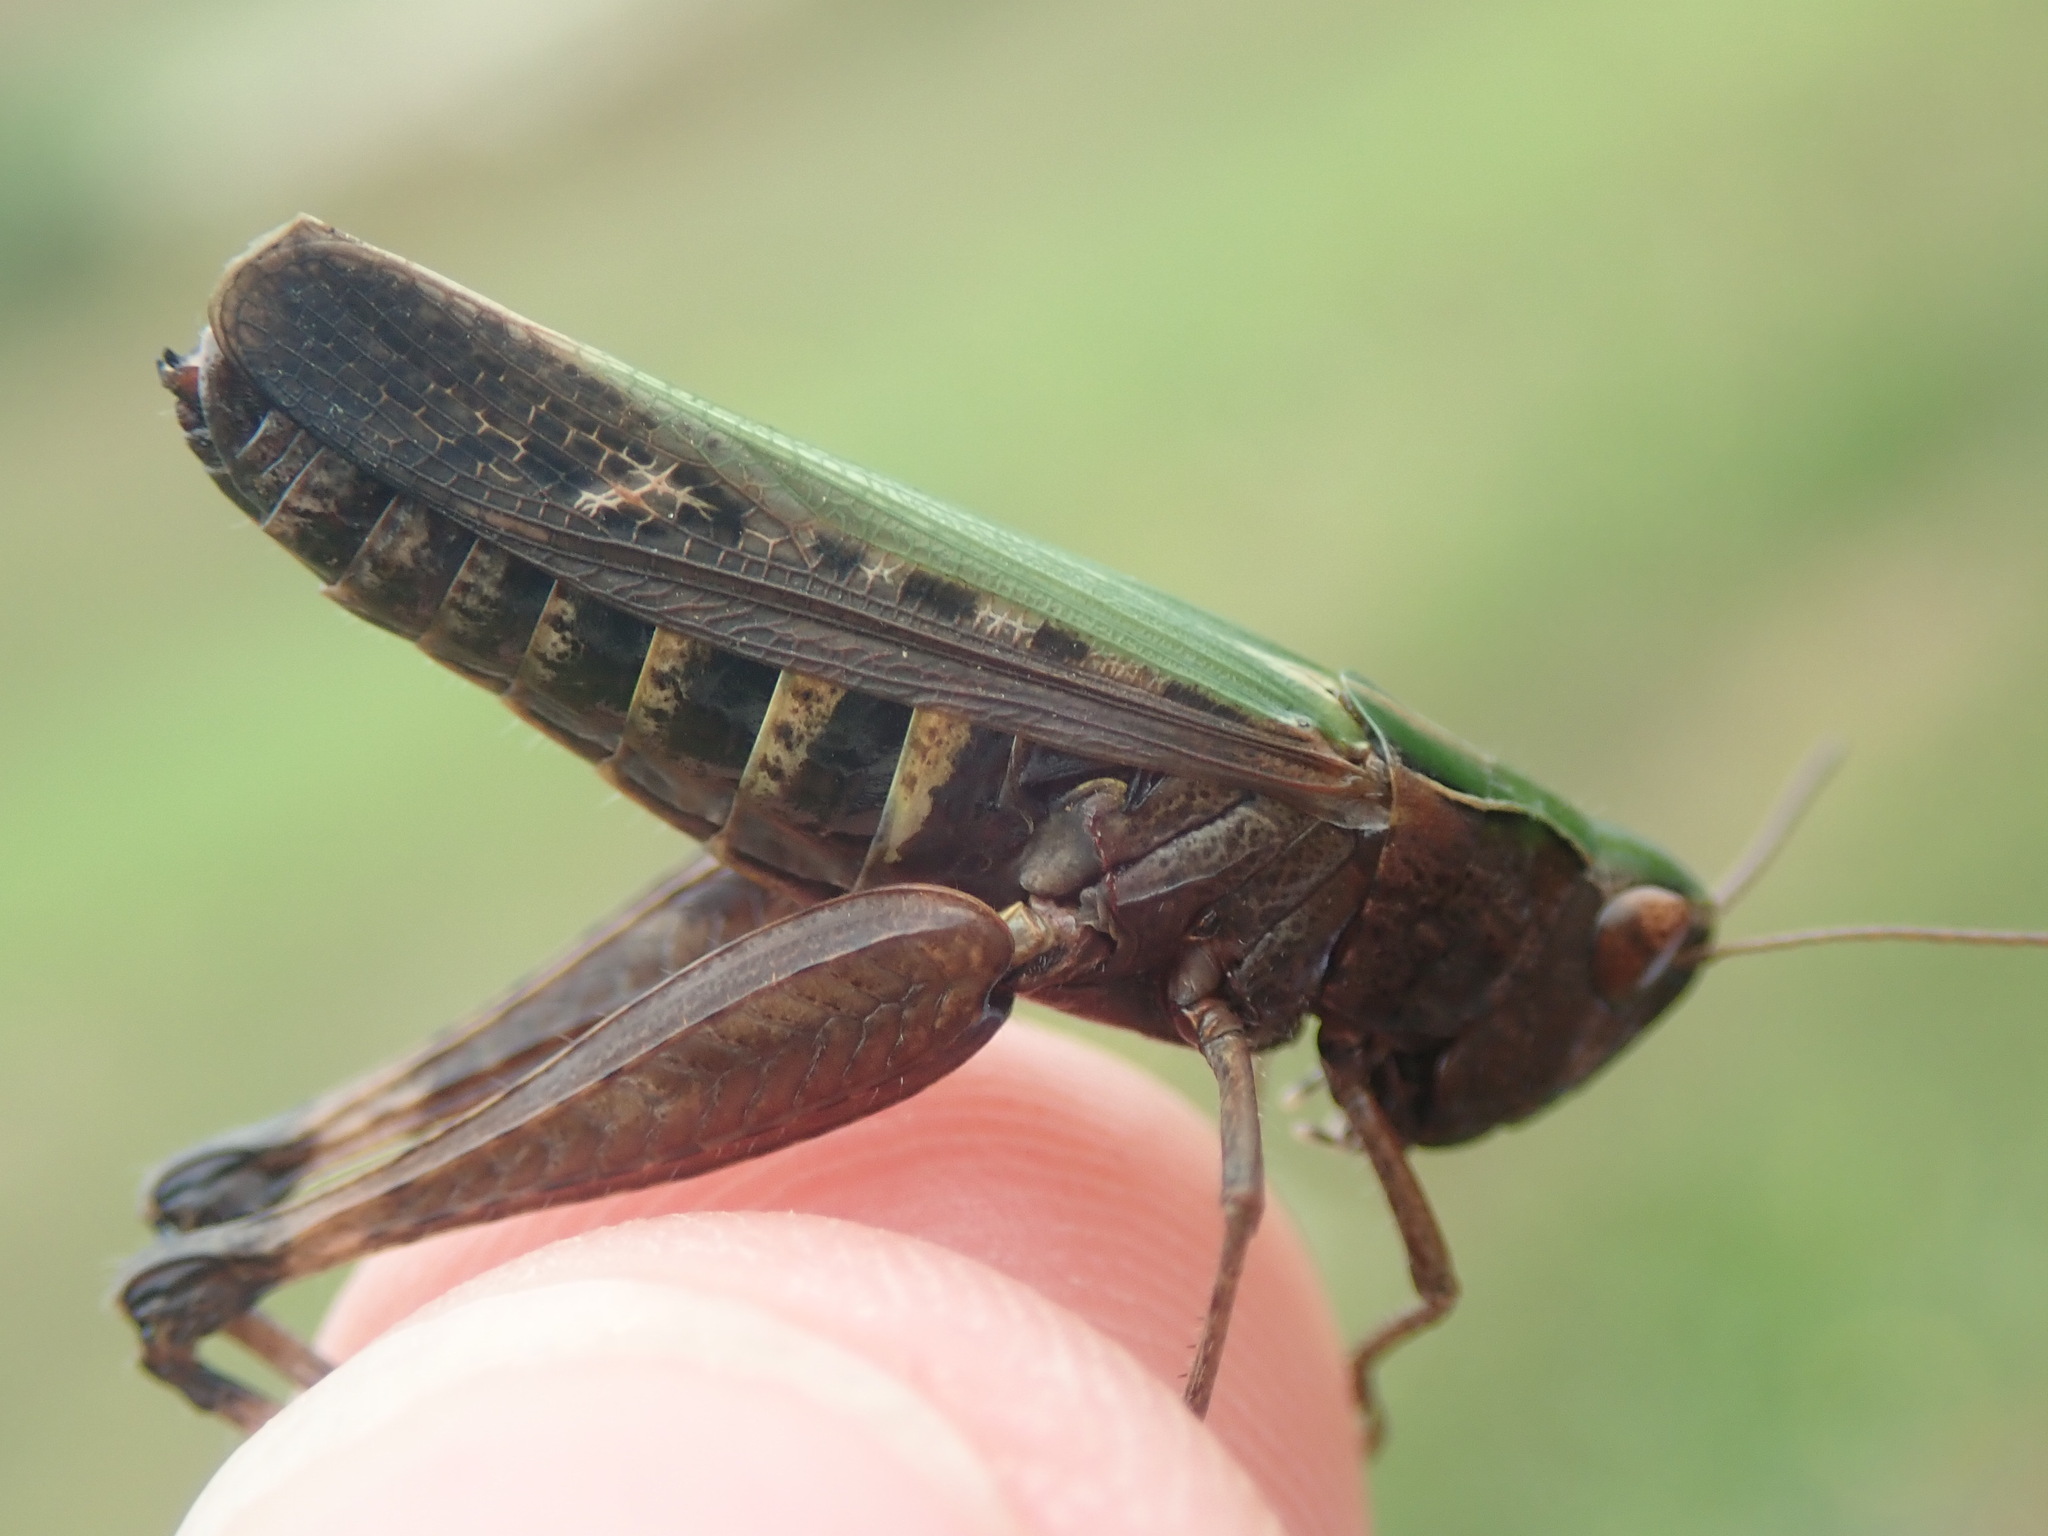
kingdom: Animalia
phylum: Arthropoda
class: Insecta
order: Orthoptera
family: Acrididae
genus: Omocestus
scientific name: Omocestus rufipes
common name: Woodland grasshopper
